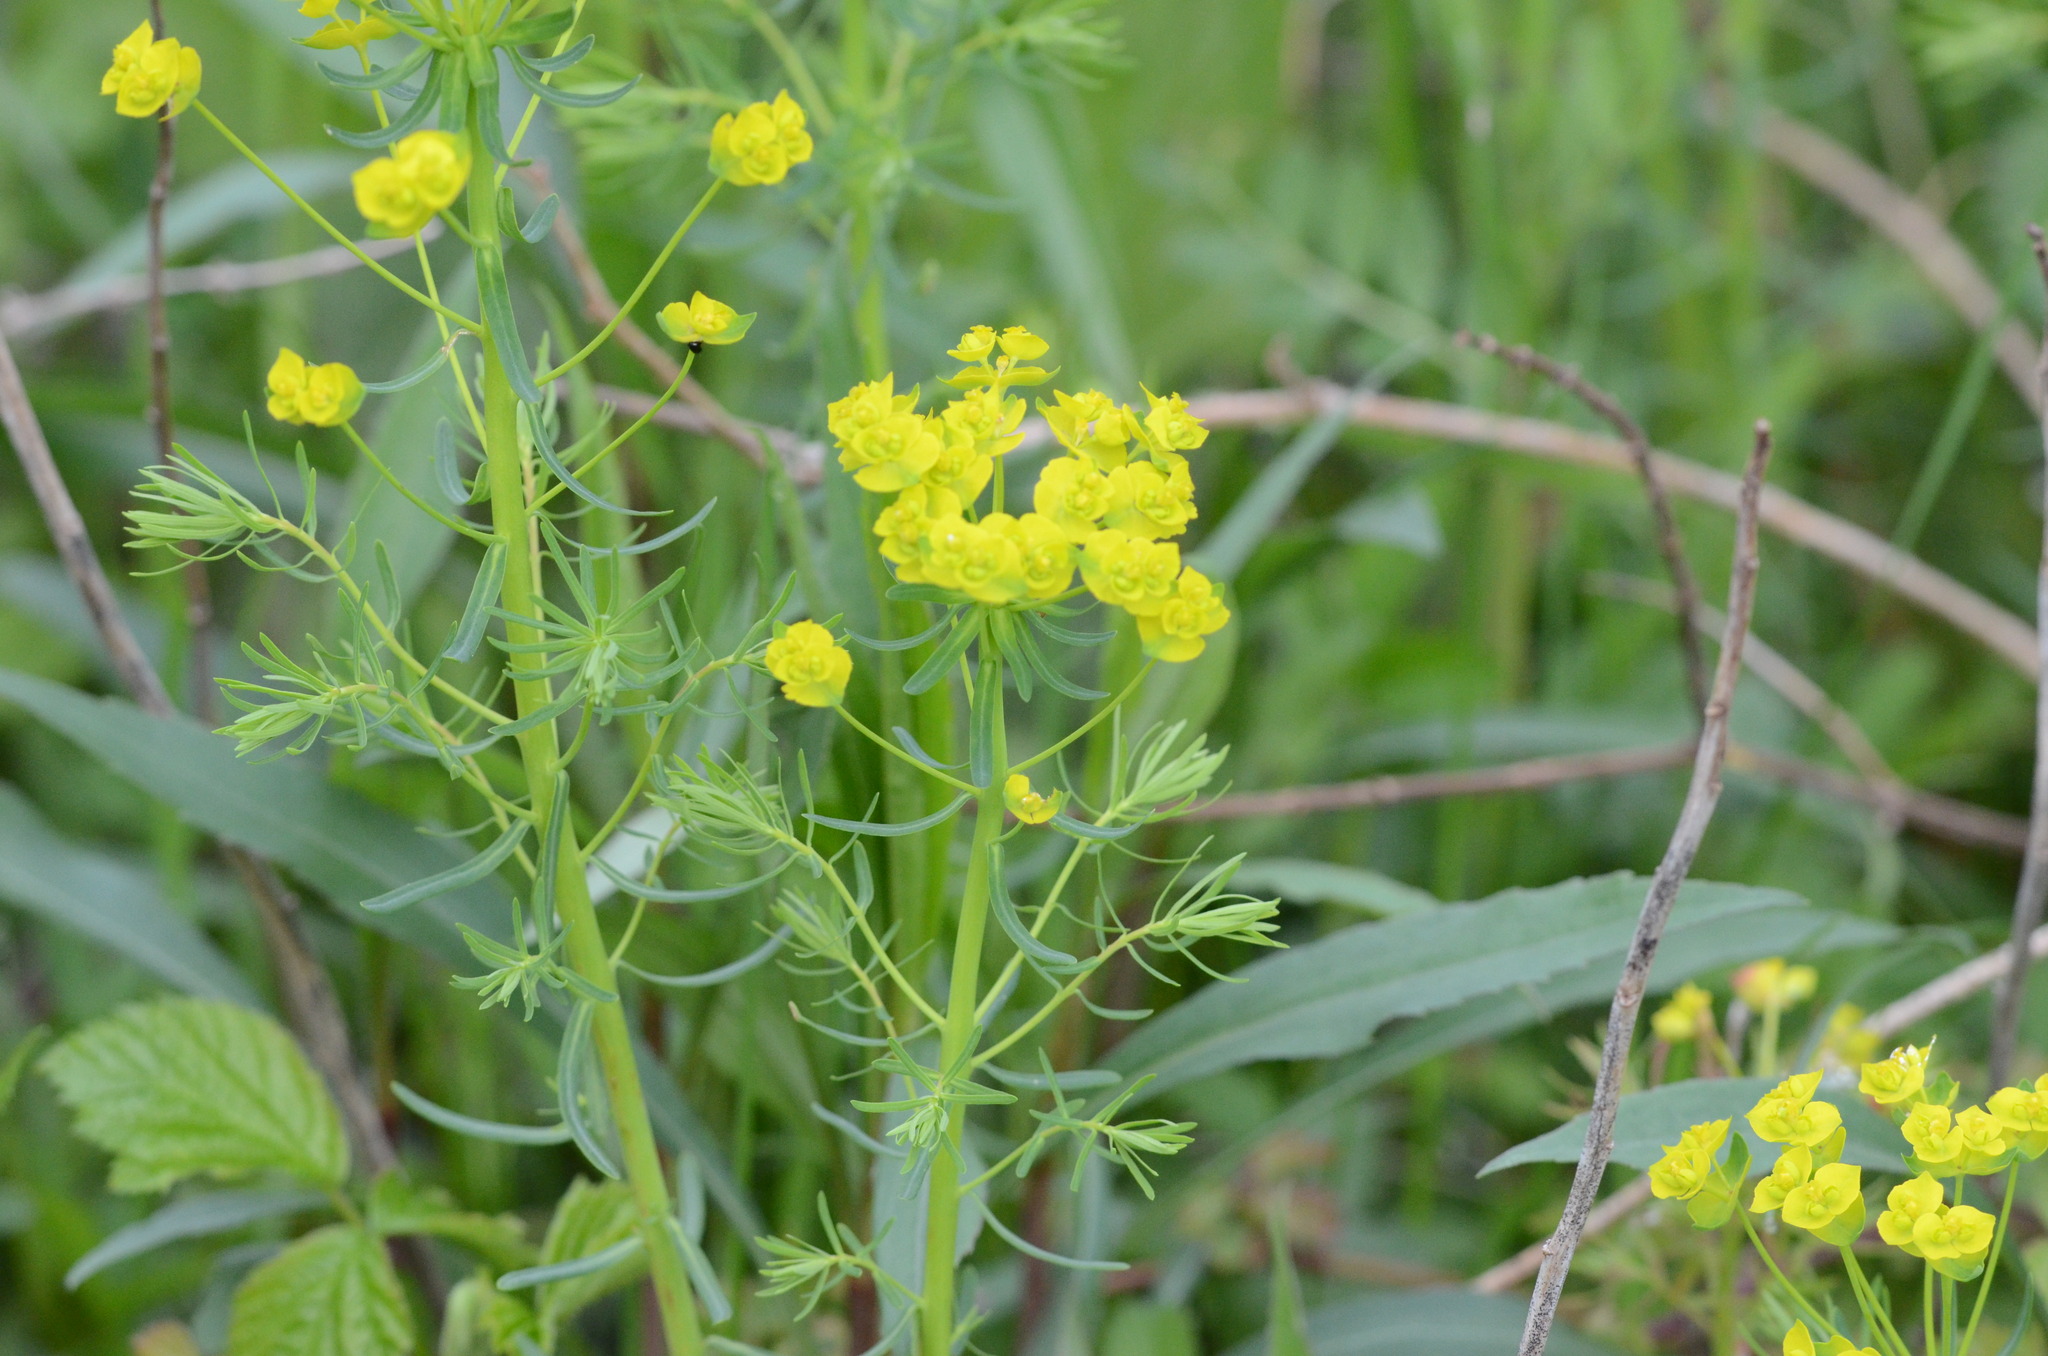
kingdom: Plantae
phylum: Tracheophyta
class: Magnoliopsida
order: Malpighiales
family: Euphorbiaceae
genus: Euphorbia
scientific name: Euphorbia cyparissias
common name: Cypress spurge
